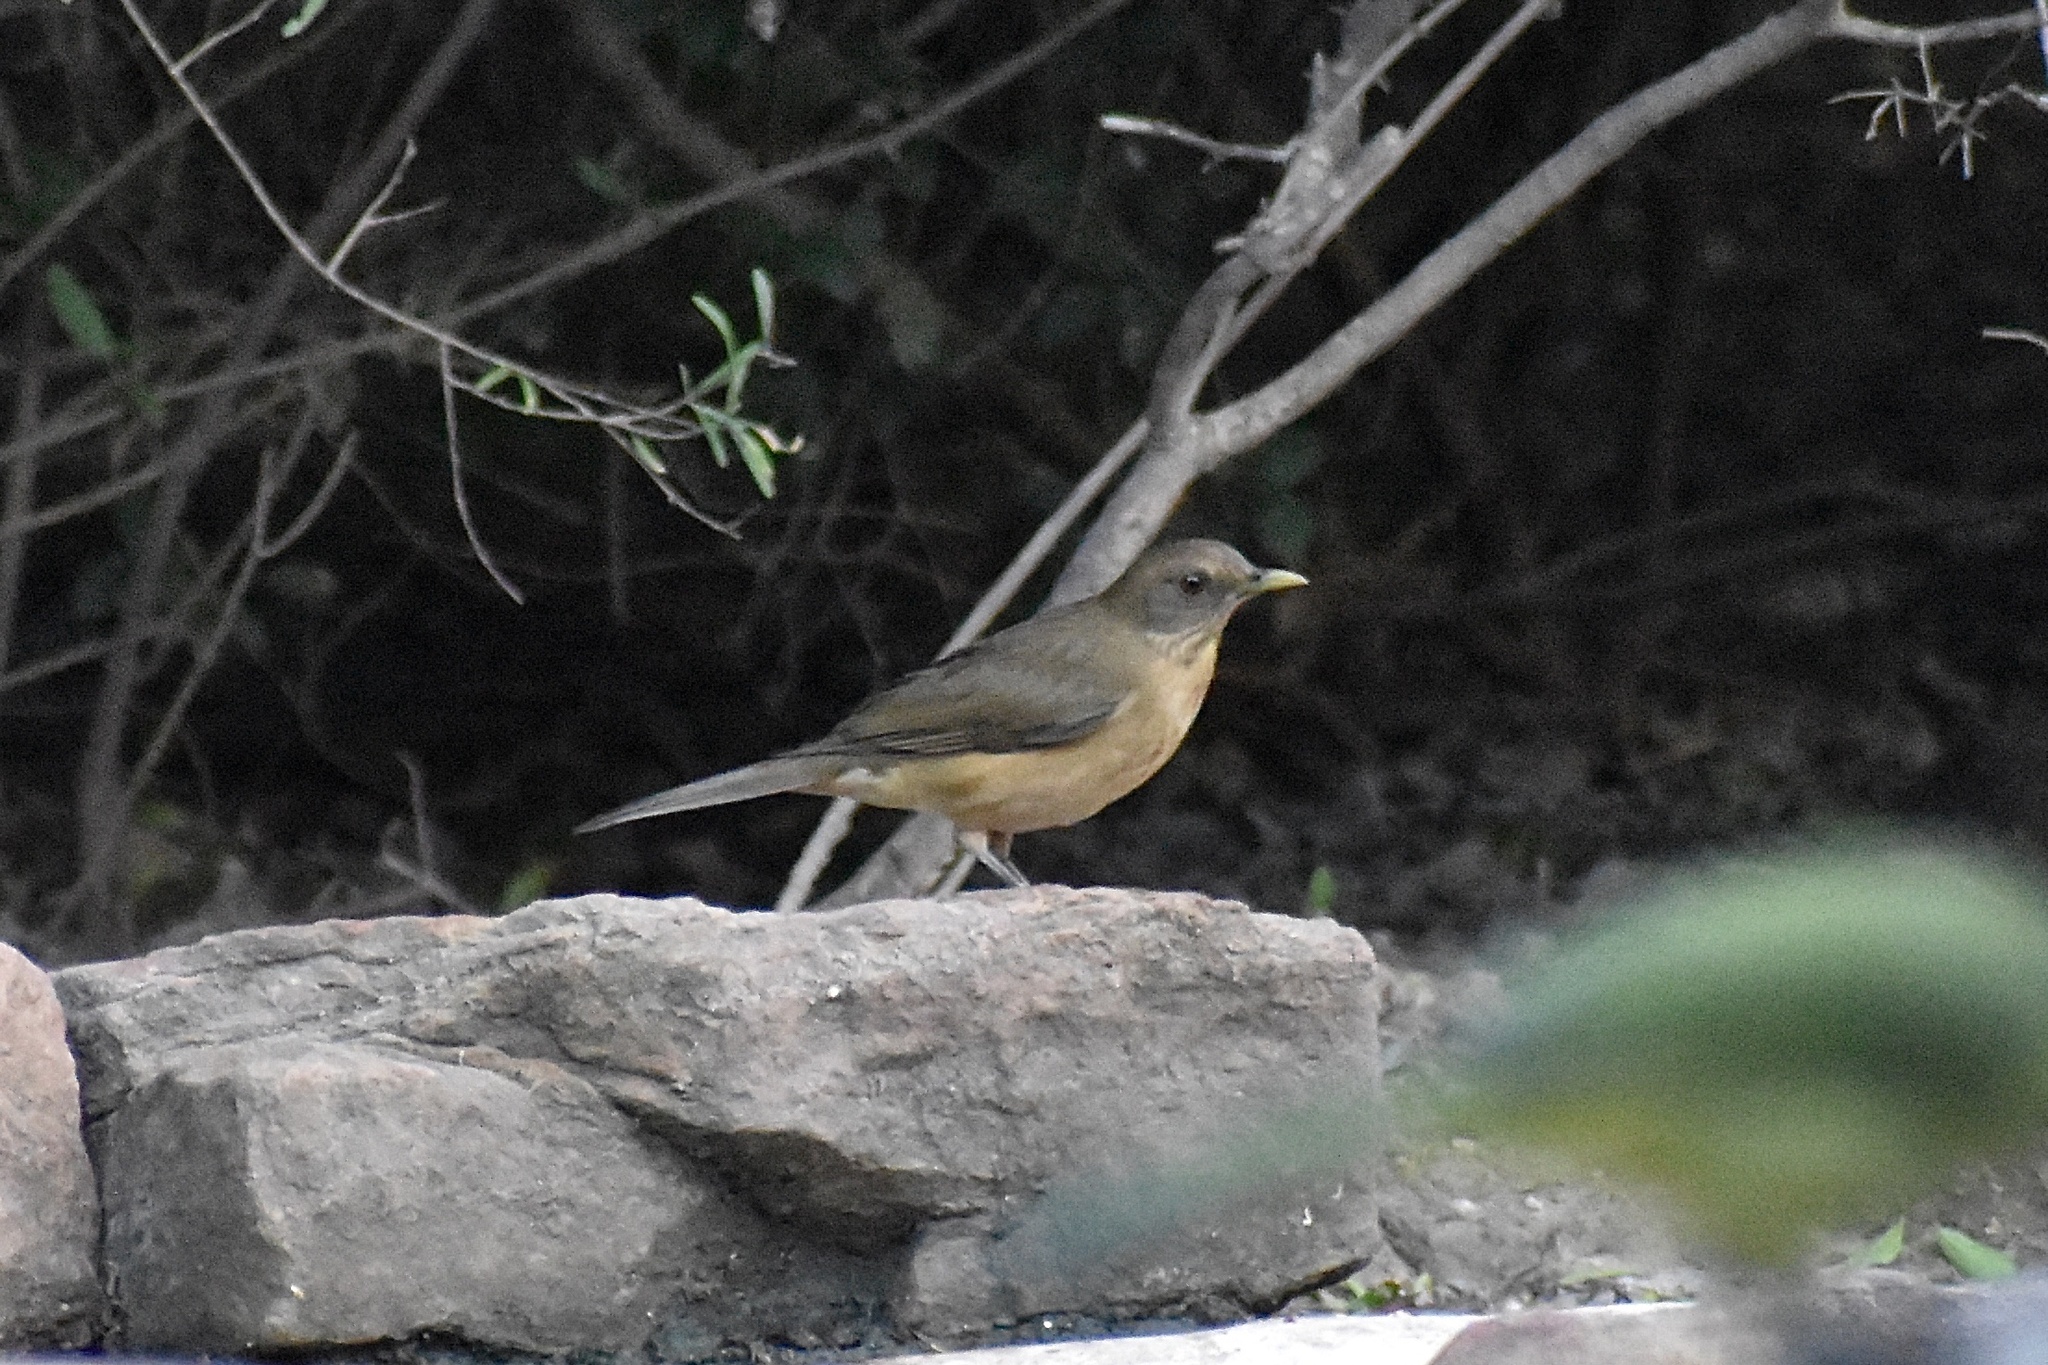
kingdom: Animalia
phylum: Chordata
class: Aves
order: Passeriformes
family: Turdidae
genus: Turdus
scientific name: Turdus grayi
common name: Clay-colored thrush
